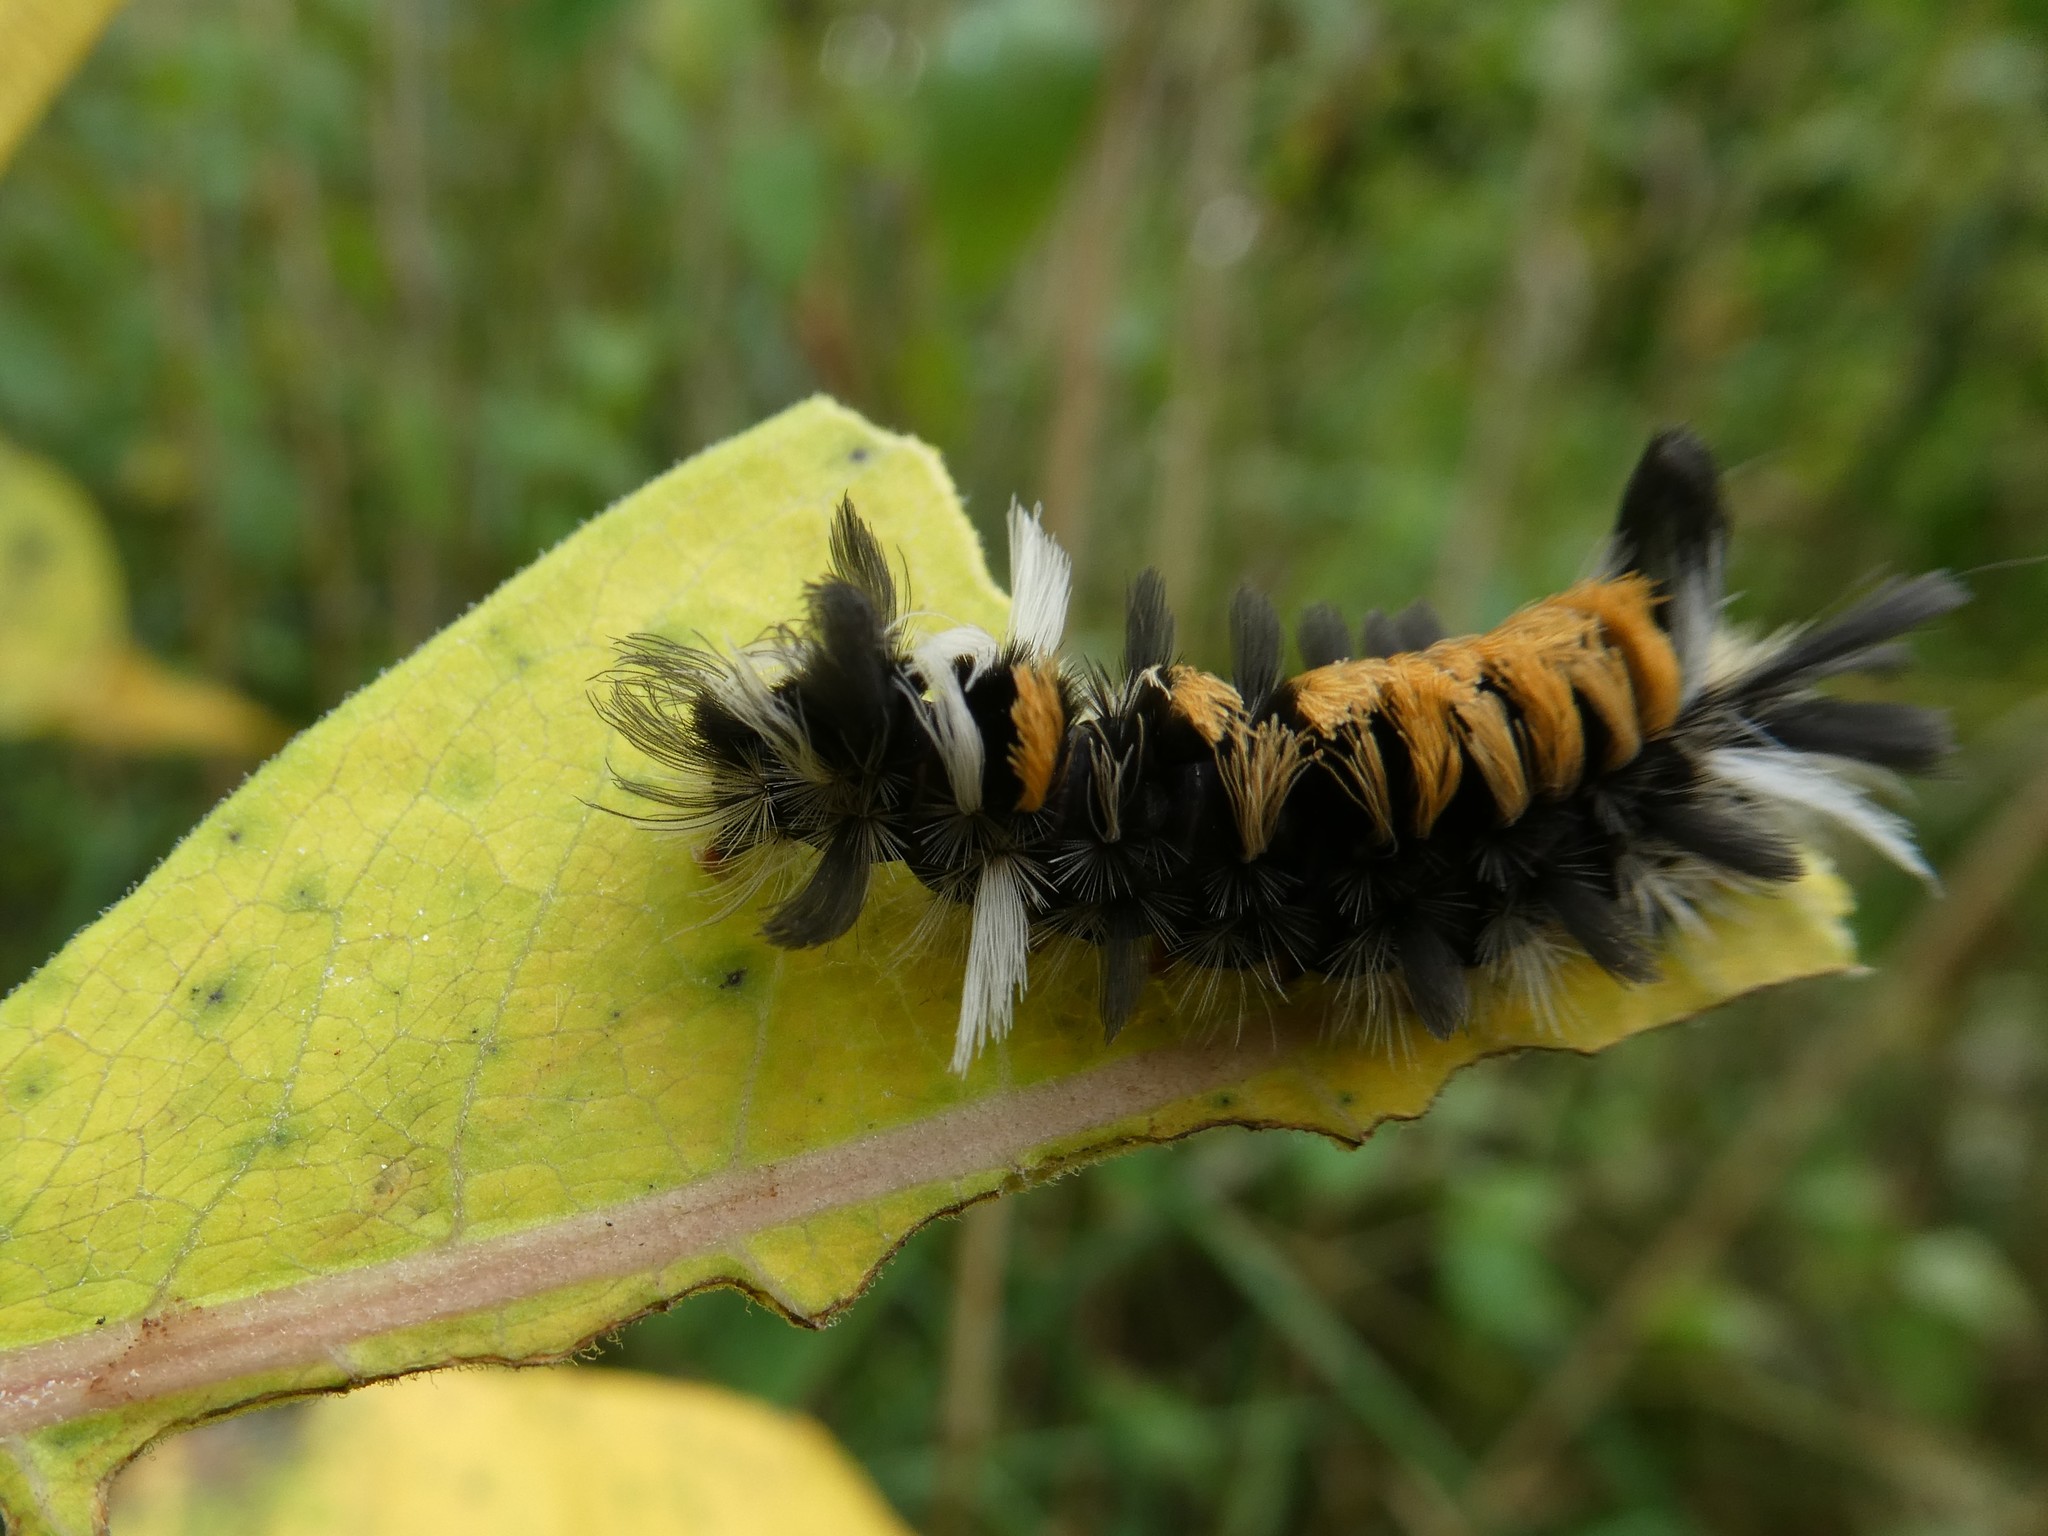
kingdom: Animalia
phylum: Arthropoda
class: Insecta
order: Lepidoptera
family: Erebidae
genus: Euchaetes
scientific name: Euchaetes egle
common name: Milkweed tussock moth
